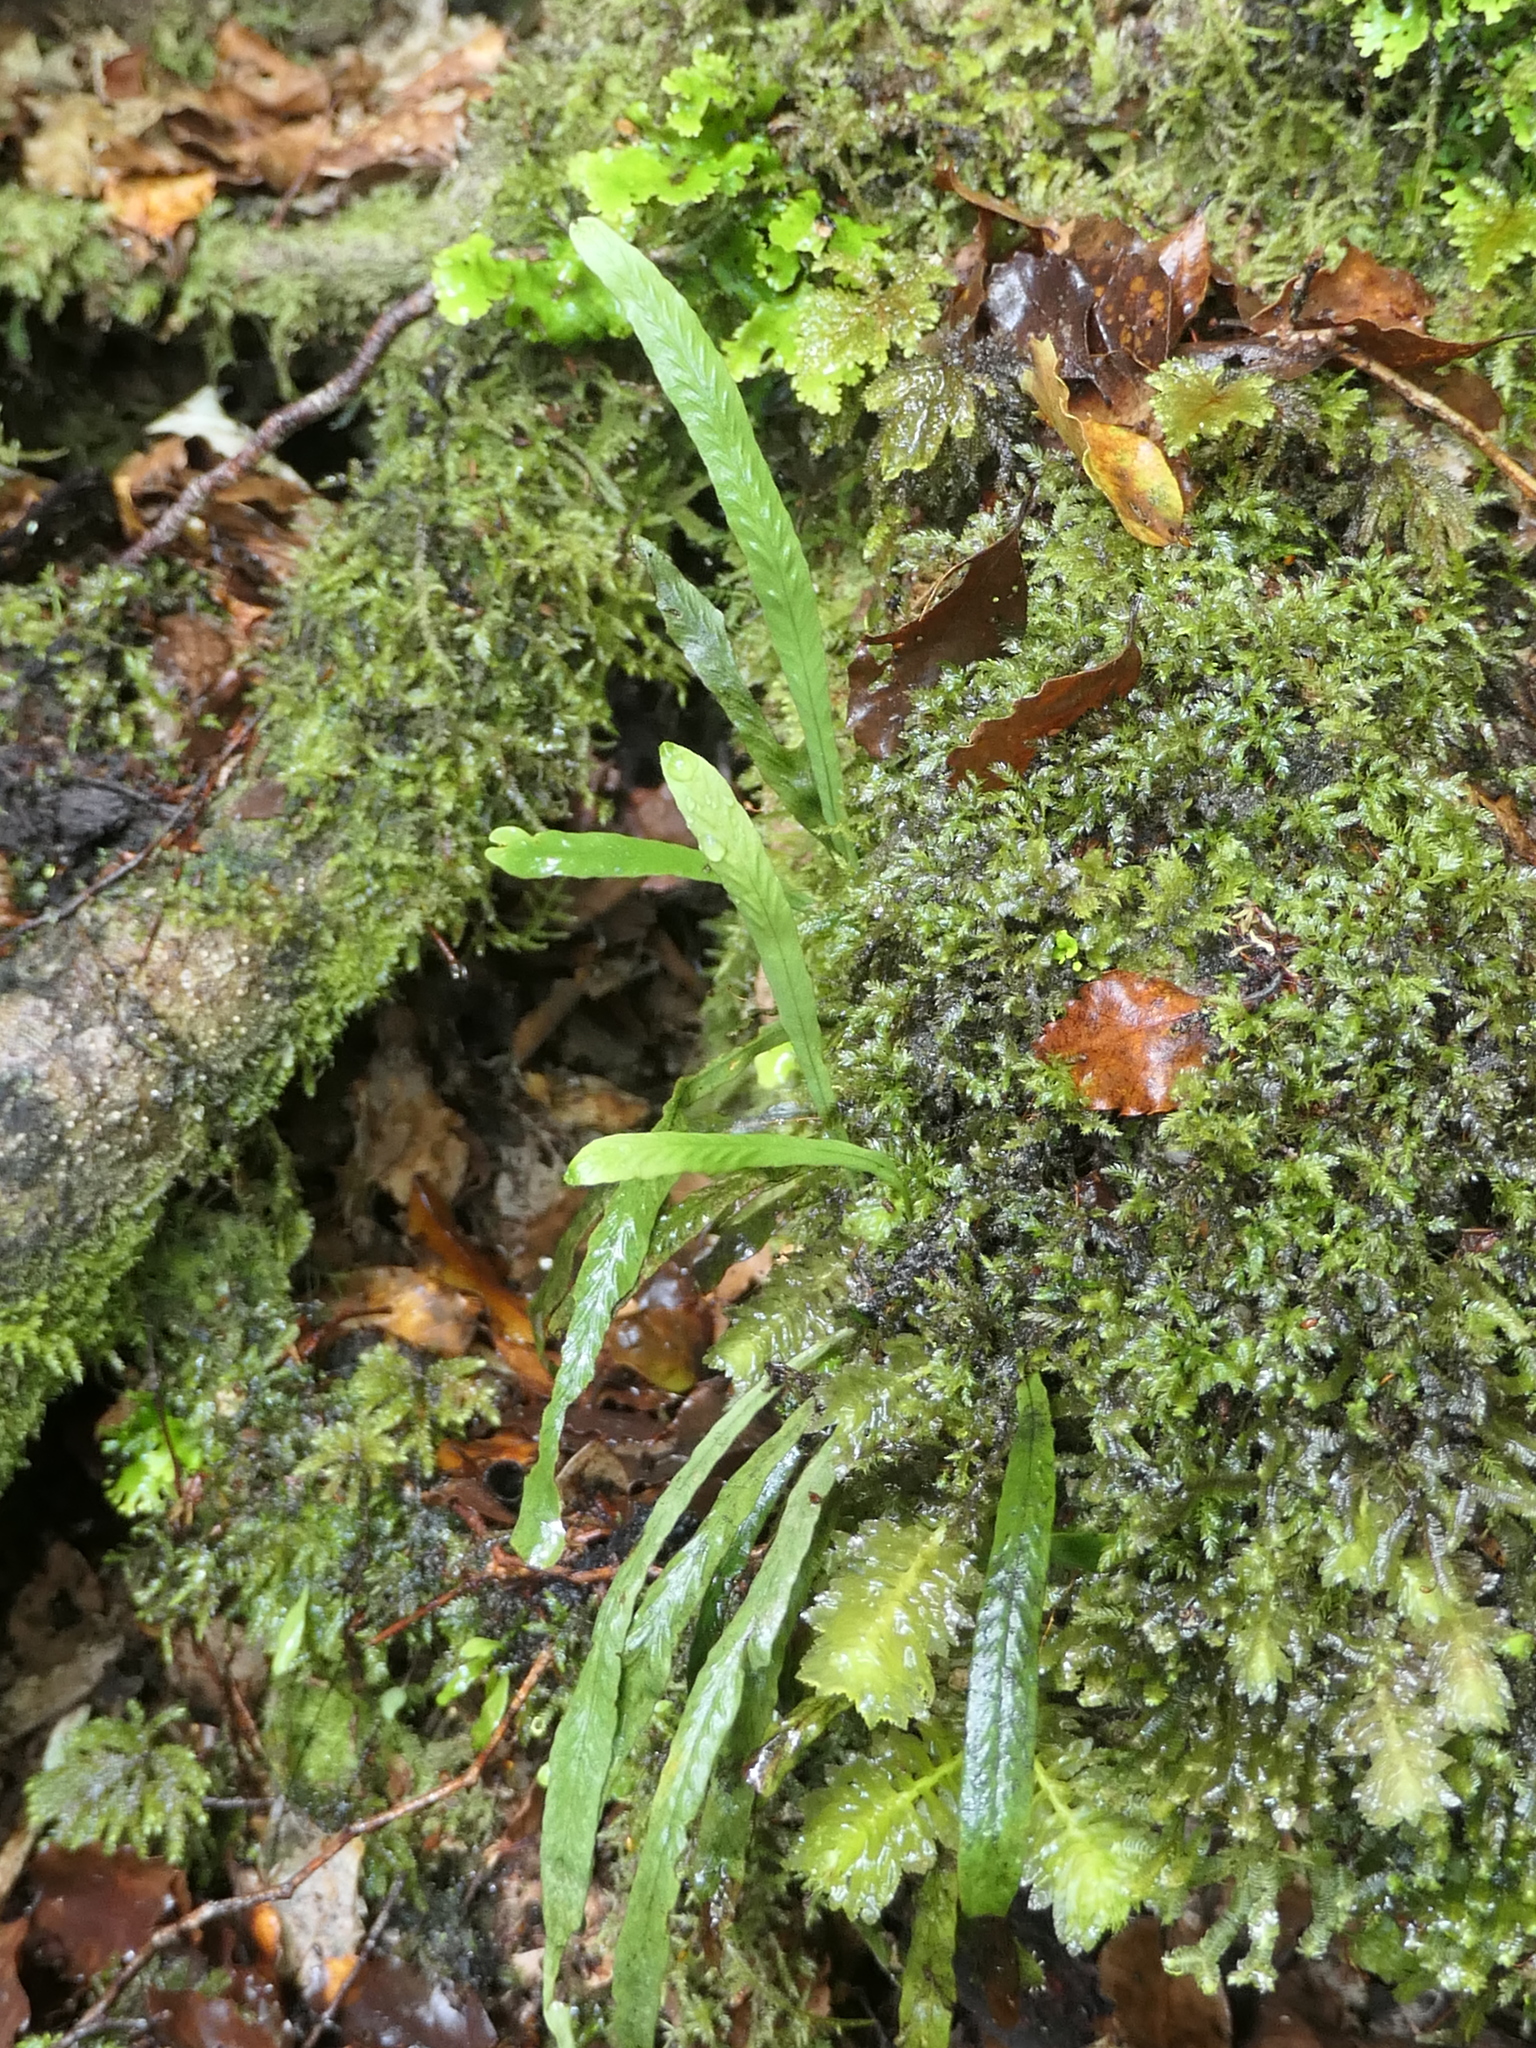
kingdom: Plantae
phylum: Tracheophyta
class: Polypodiopsida
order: Polypodiales
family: Polypodiaceae
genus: Notogrammitis
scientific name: Notogrammitis billardierei
